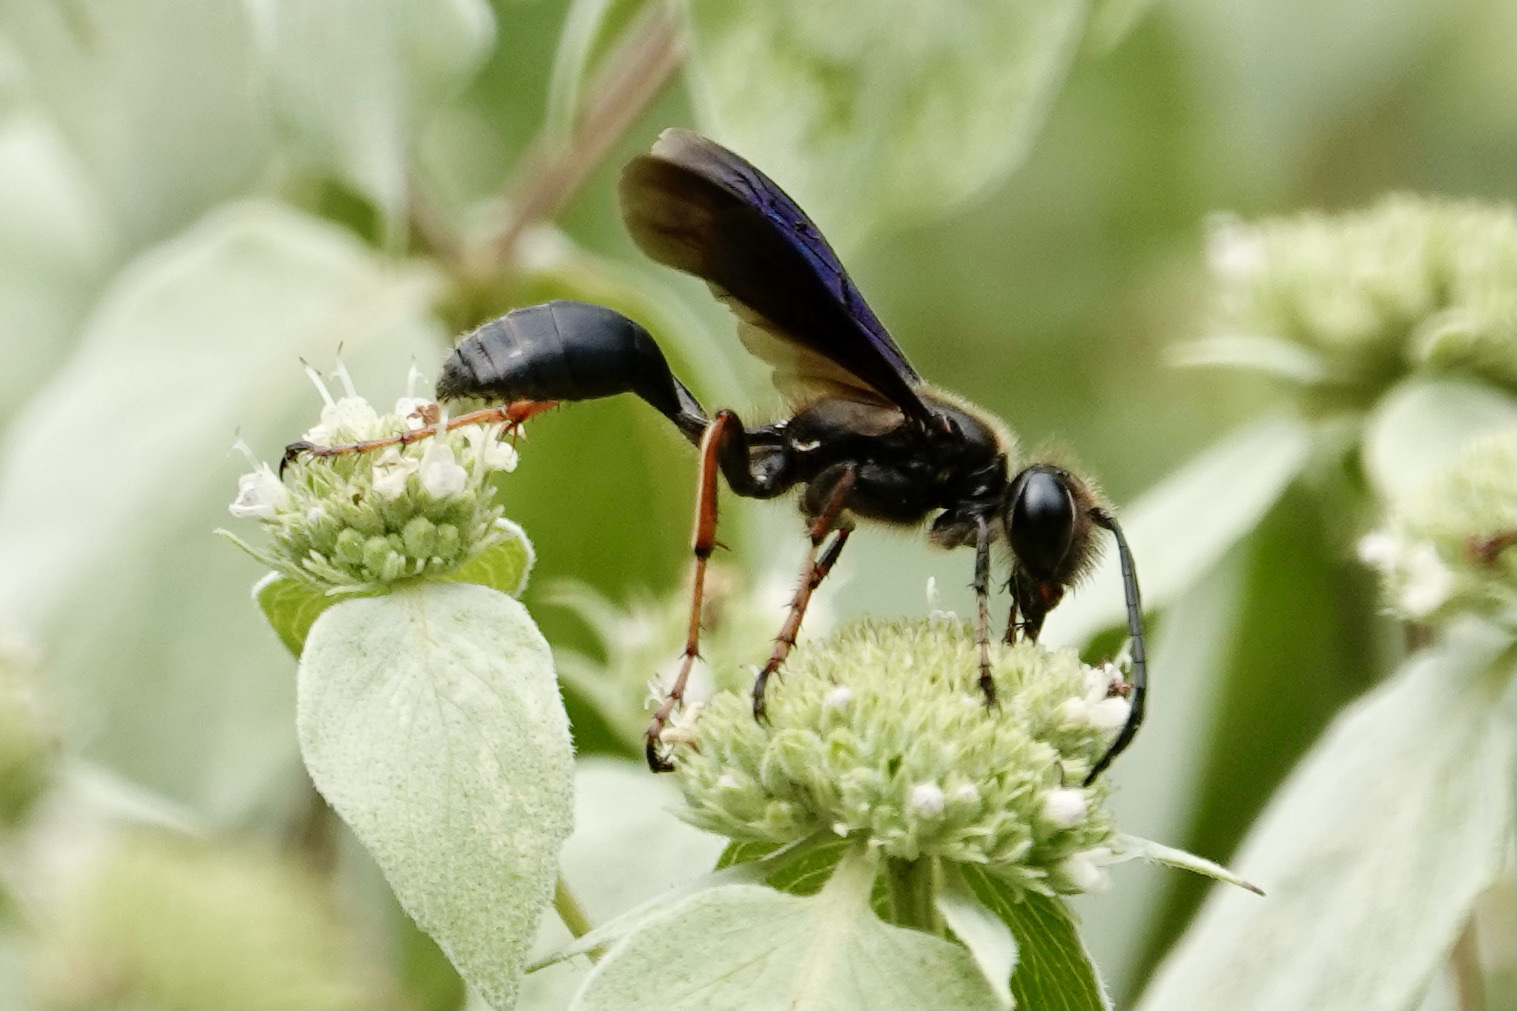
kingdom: Animalia
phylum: Arthropoda
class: Insecta
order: Hymenoptera
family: Sphecidae
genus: Isodontia
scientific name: Isodontia auripes
